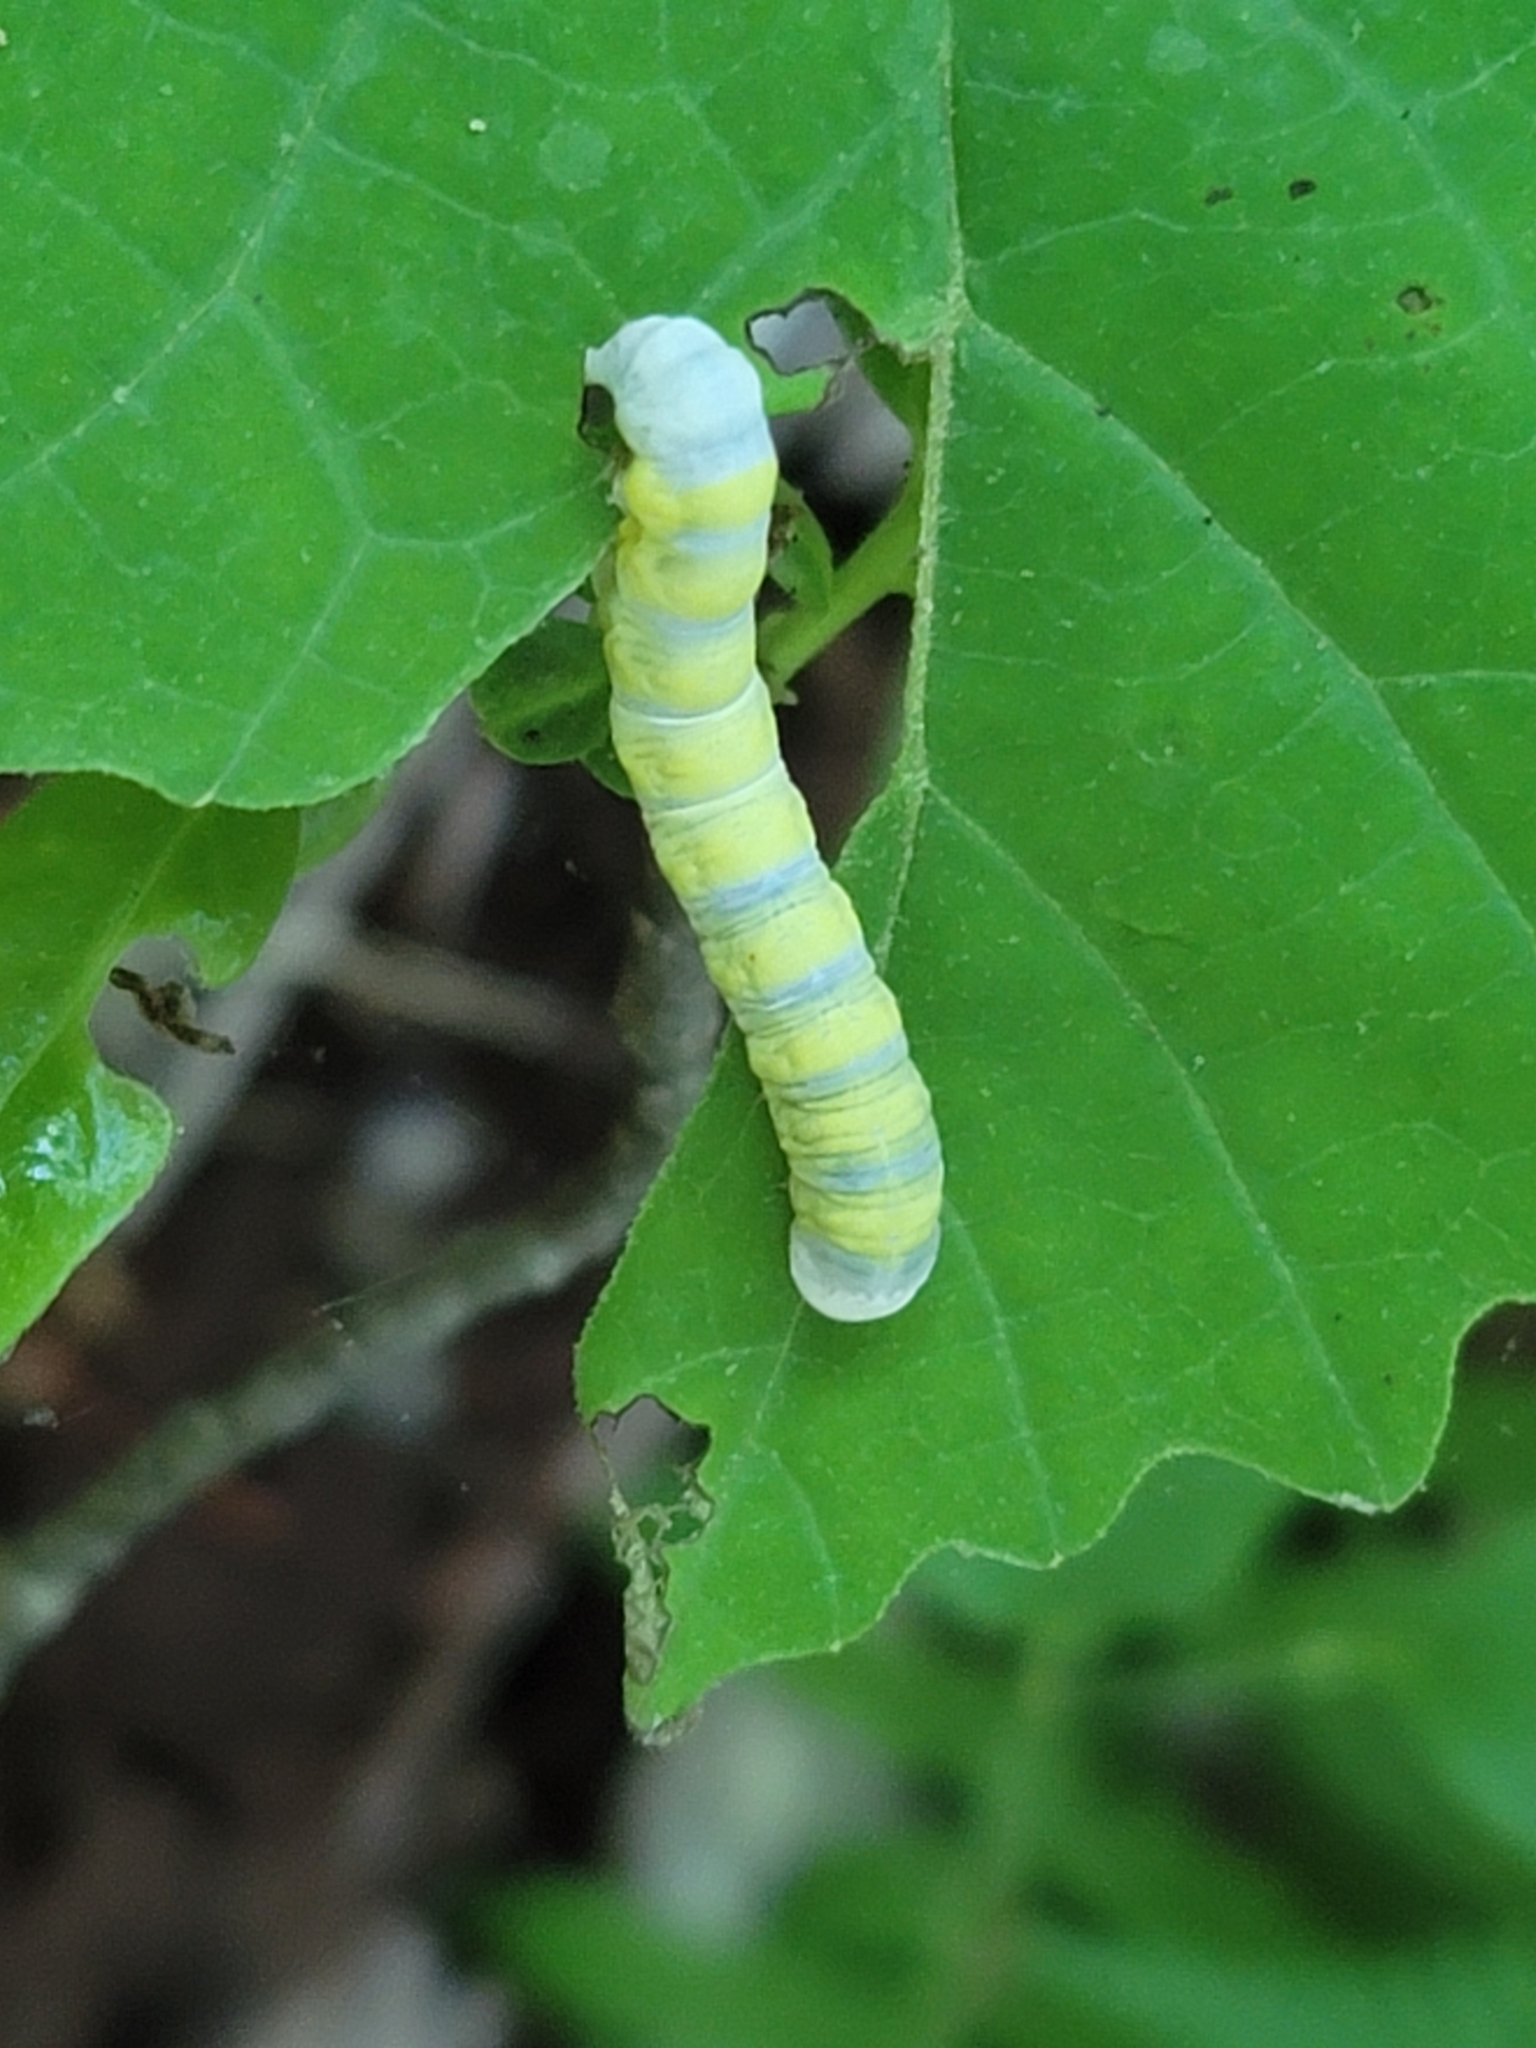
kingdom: Animalia
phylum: Arthropoda
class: Insecta
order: Lepidoptera
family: Noctuidae
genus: Pyreferra
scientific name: Pyreferra
